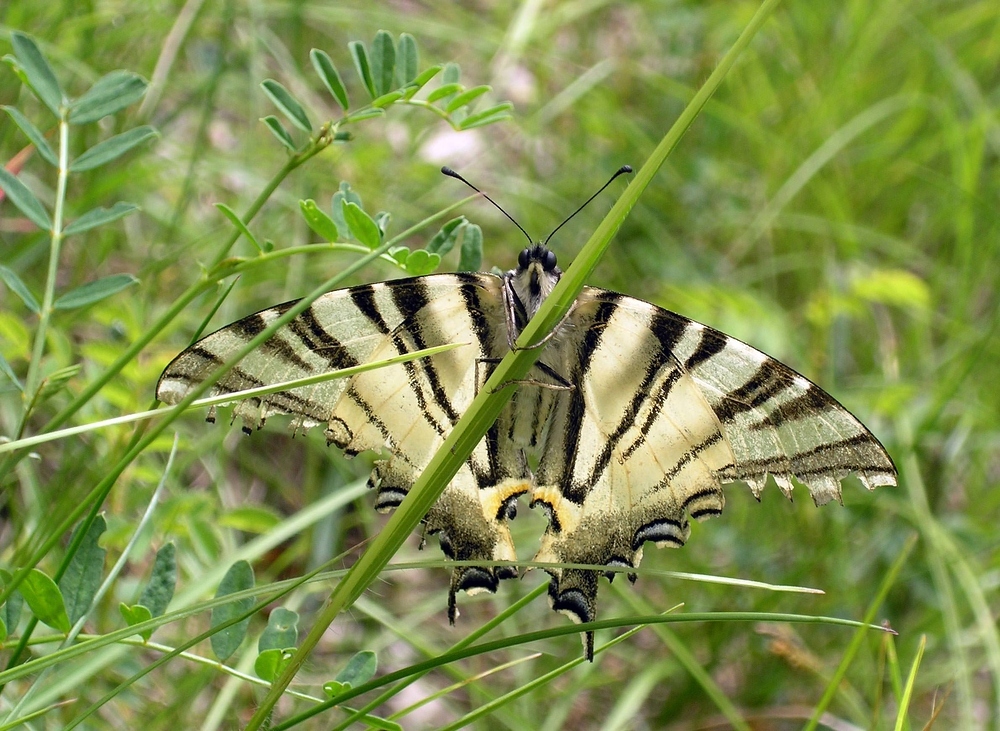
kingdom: Animalia
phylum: Arthropoda
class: Insecta
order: Lepidoptera
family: Papilionidae
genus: Iphiclides
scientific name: Iphiclides podalirius
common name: Scarce swallowtail
